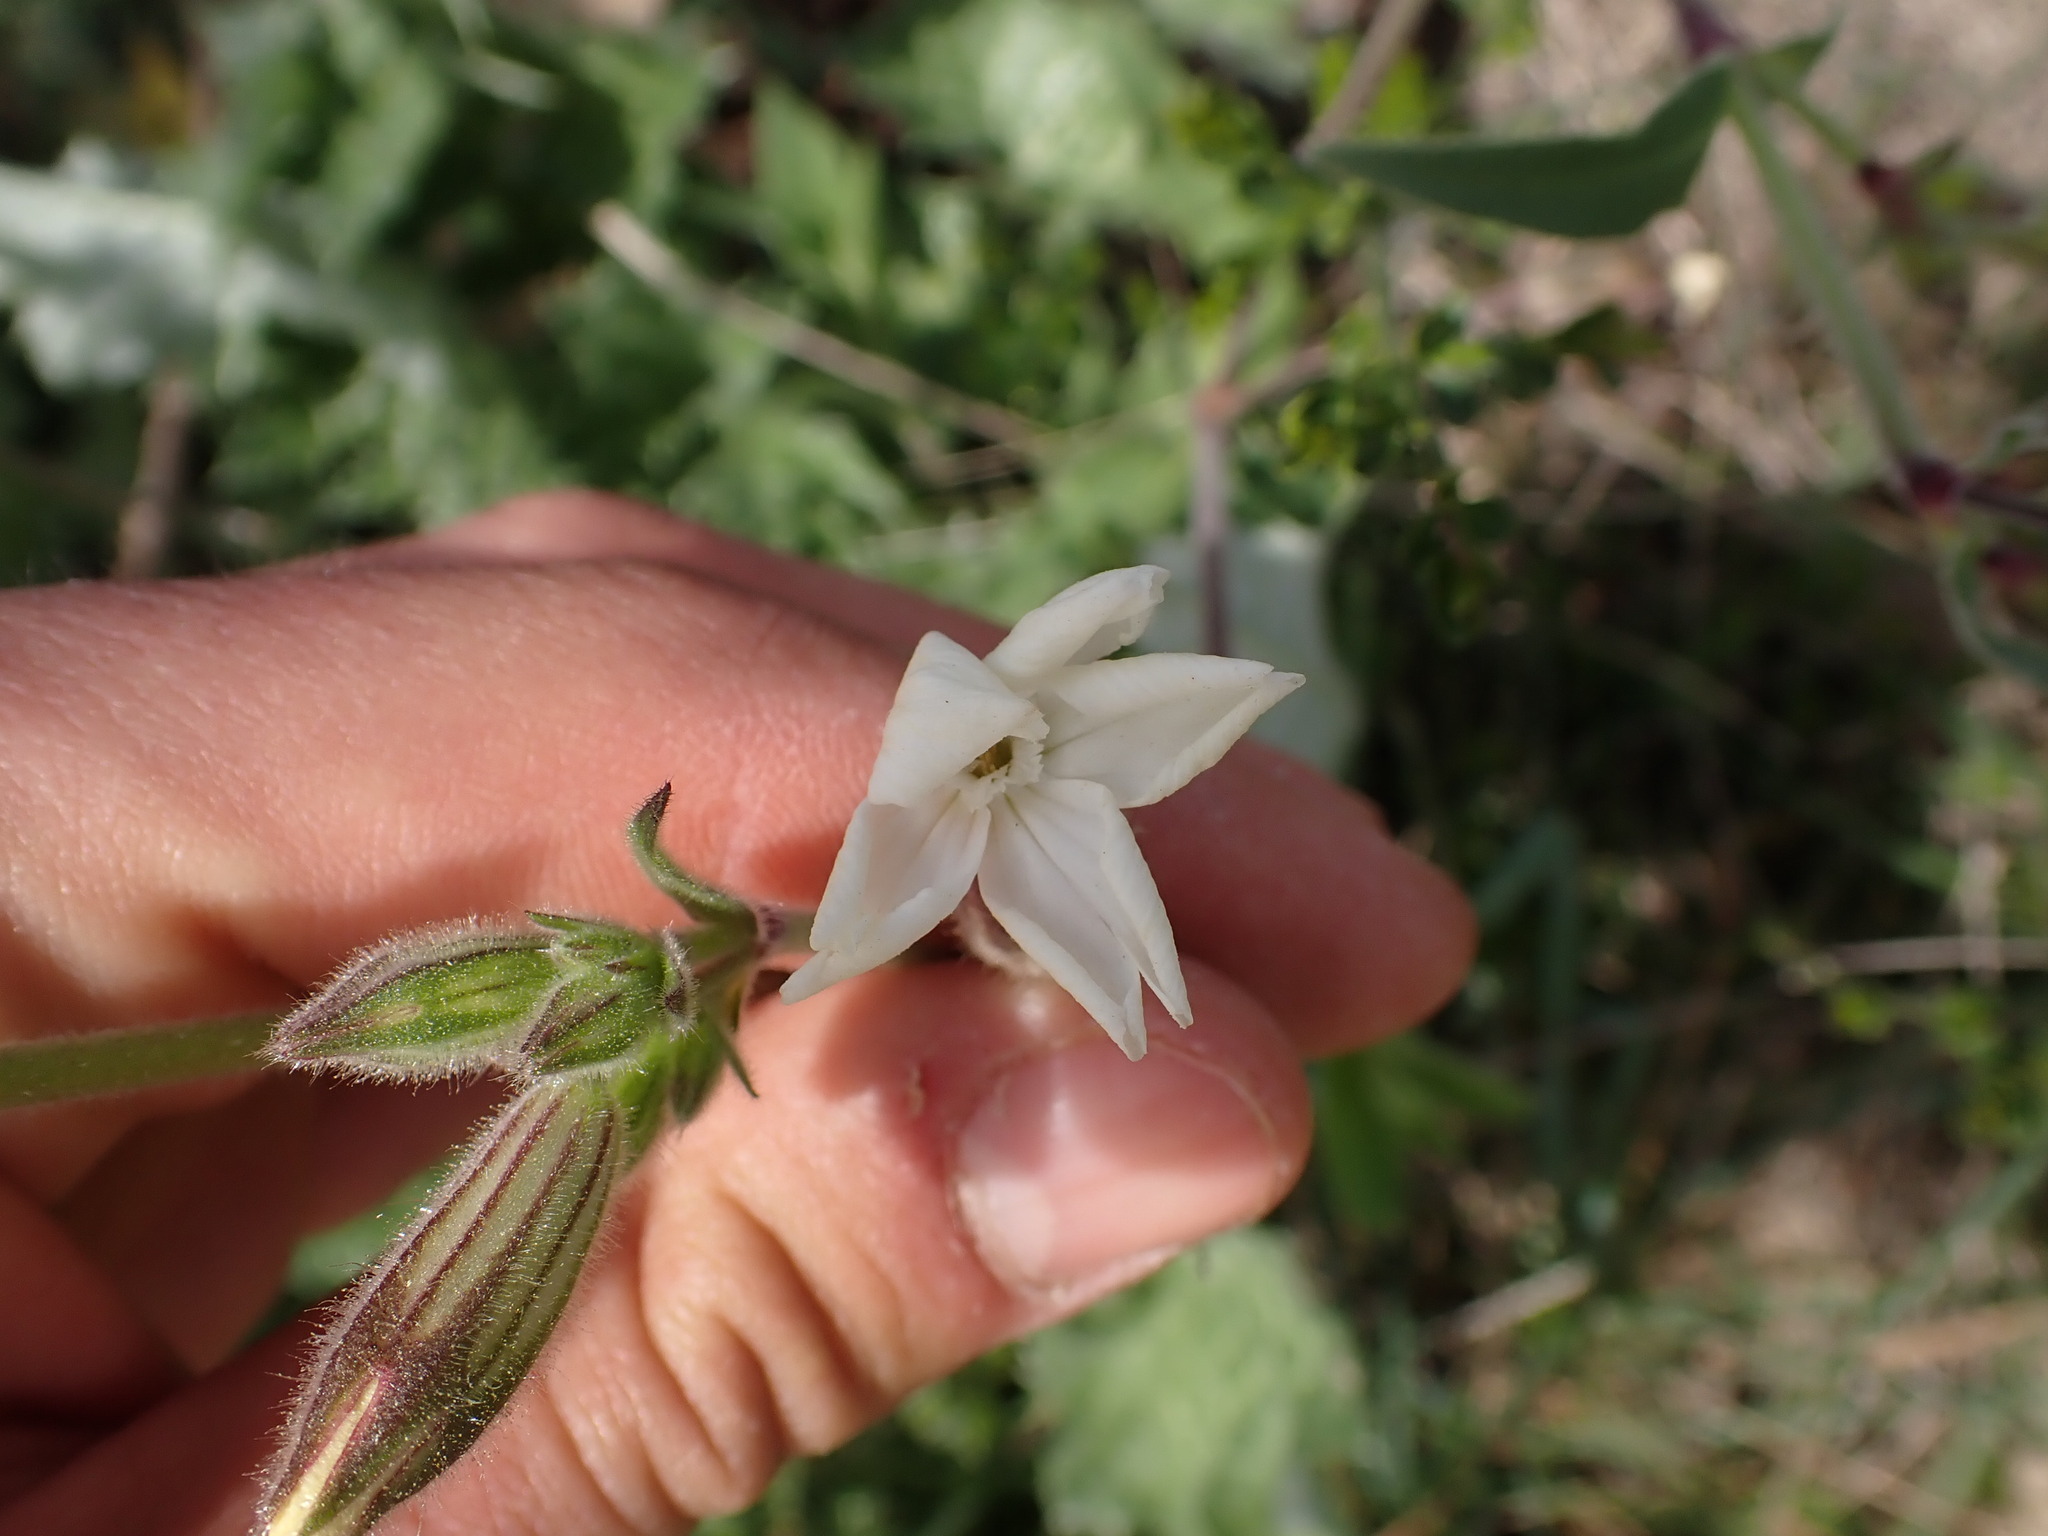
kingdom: Plantae
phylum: Tracheophyta
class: Magnoliopsida
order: Caryophyllales
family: Caryophyllaceae
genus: Silene
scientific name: Silene latifolia
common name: White campion
